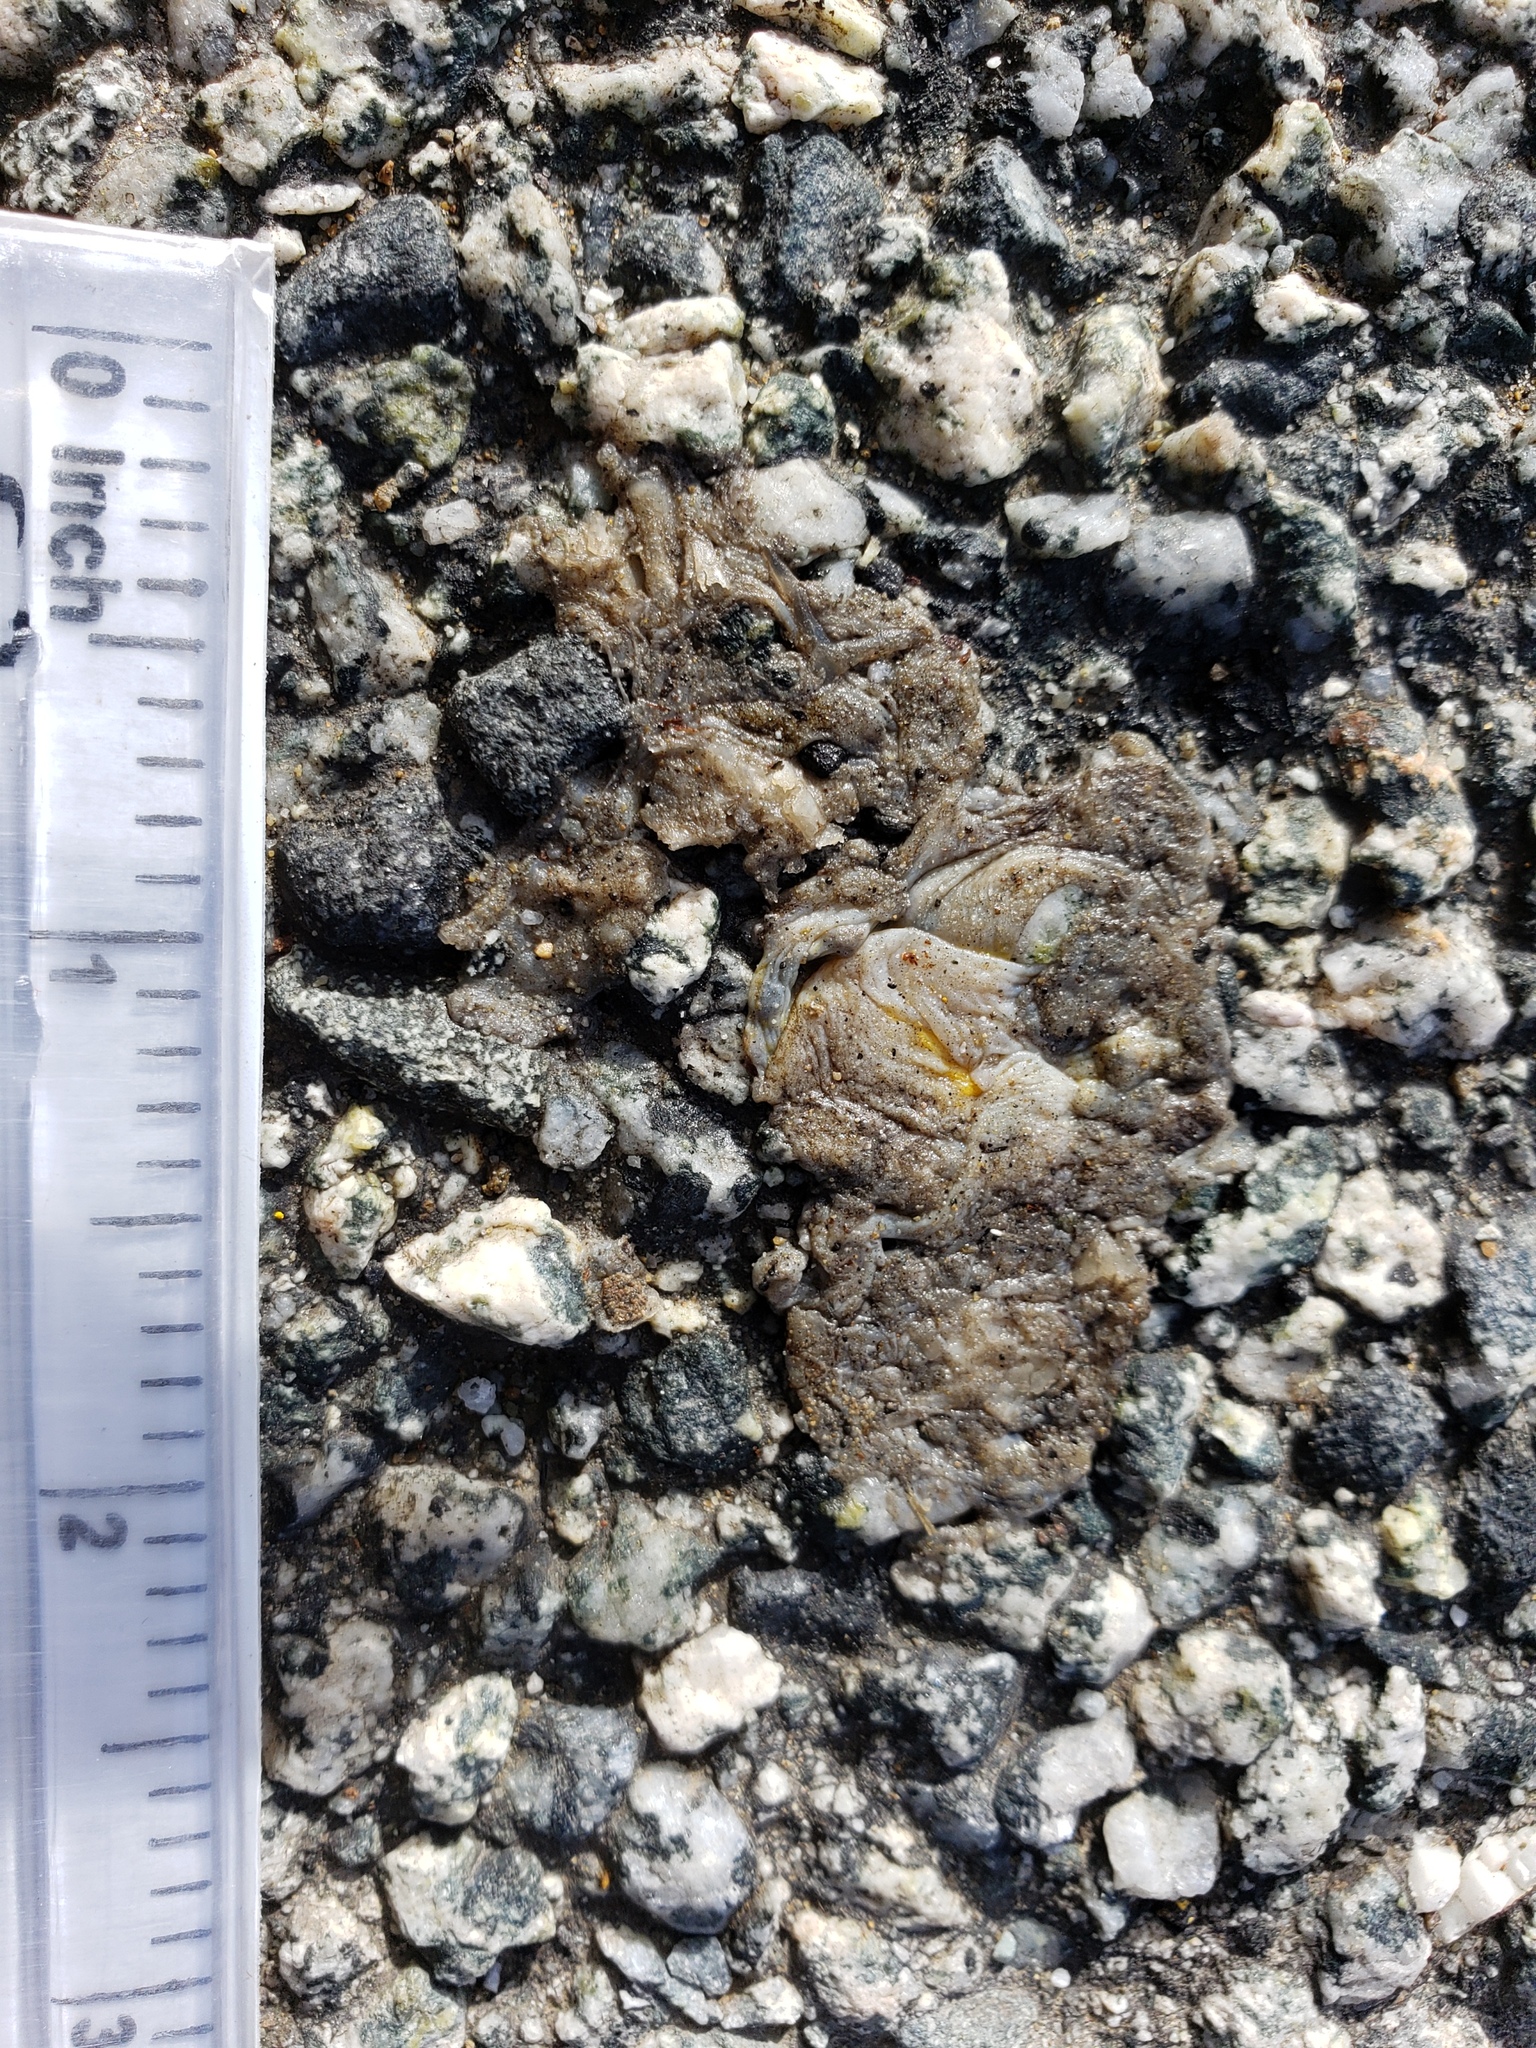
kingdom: Animalia
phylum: Chordata
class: Amphibia
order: Caudata
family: Salamandridae
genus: Taricha
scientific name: Taricha
